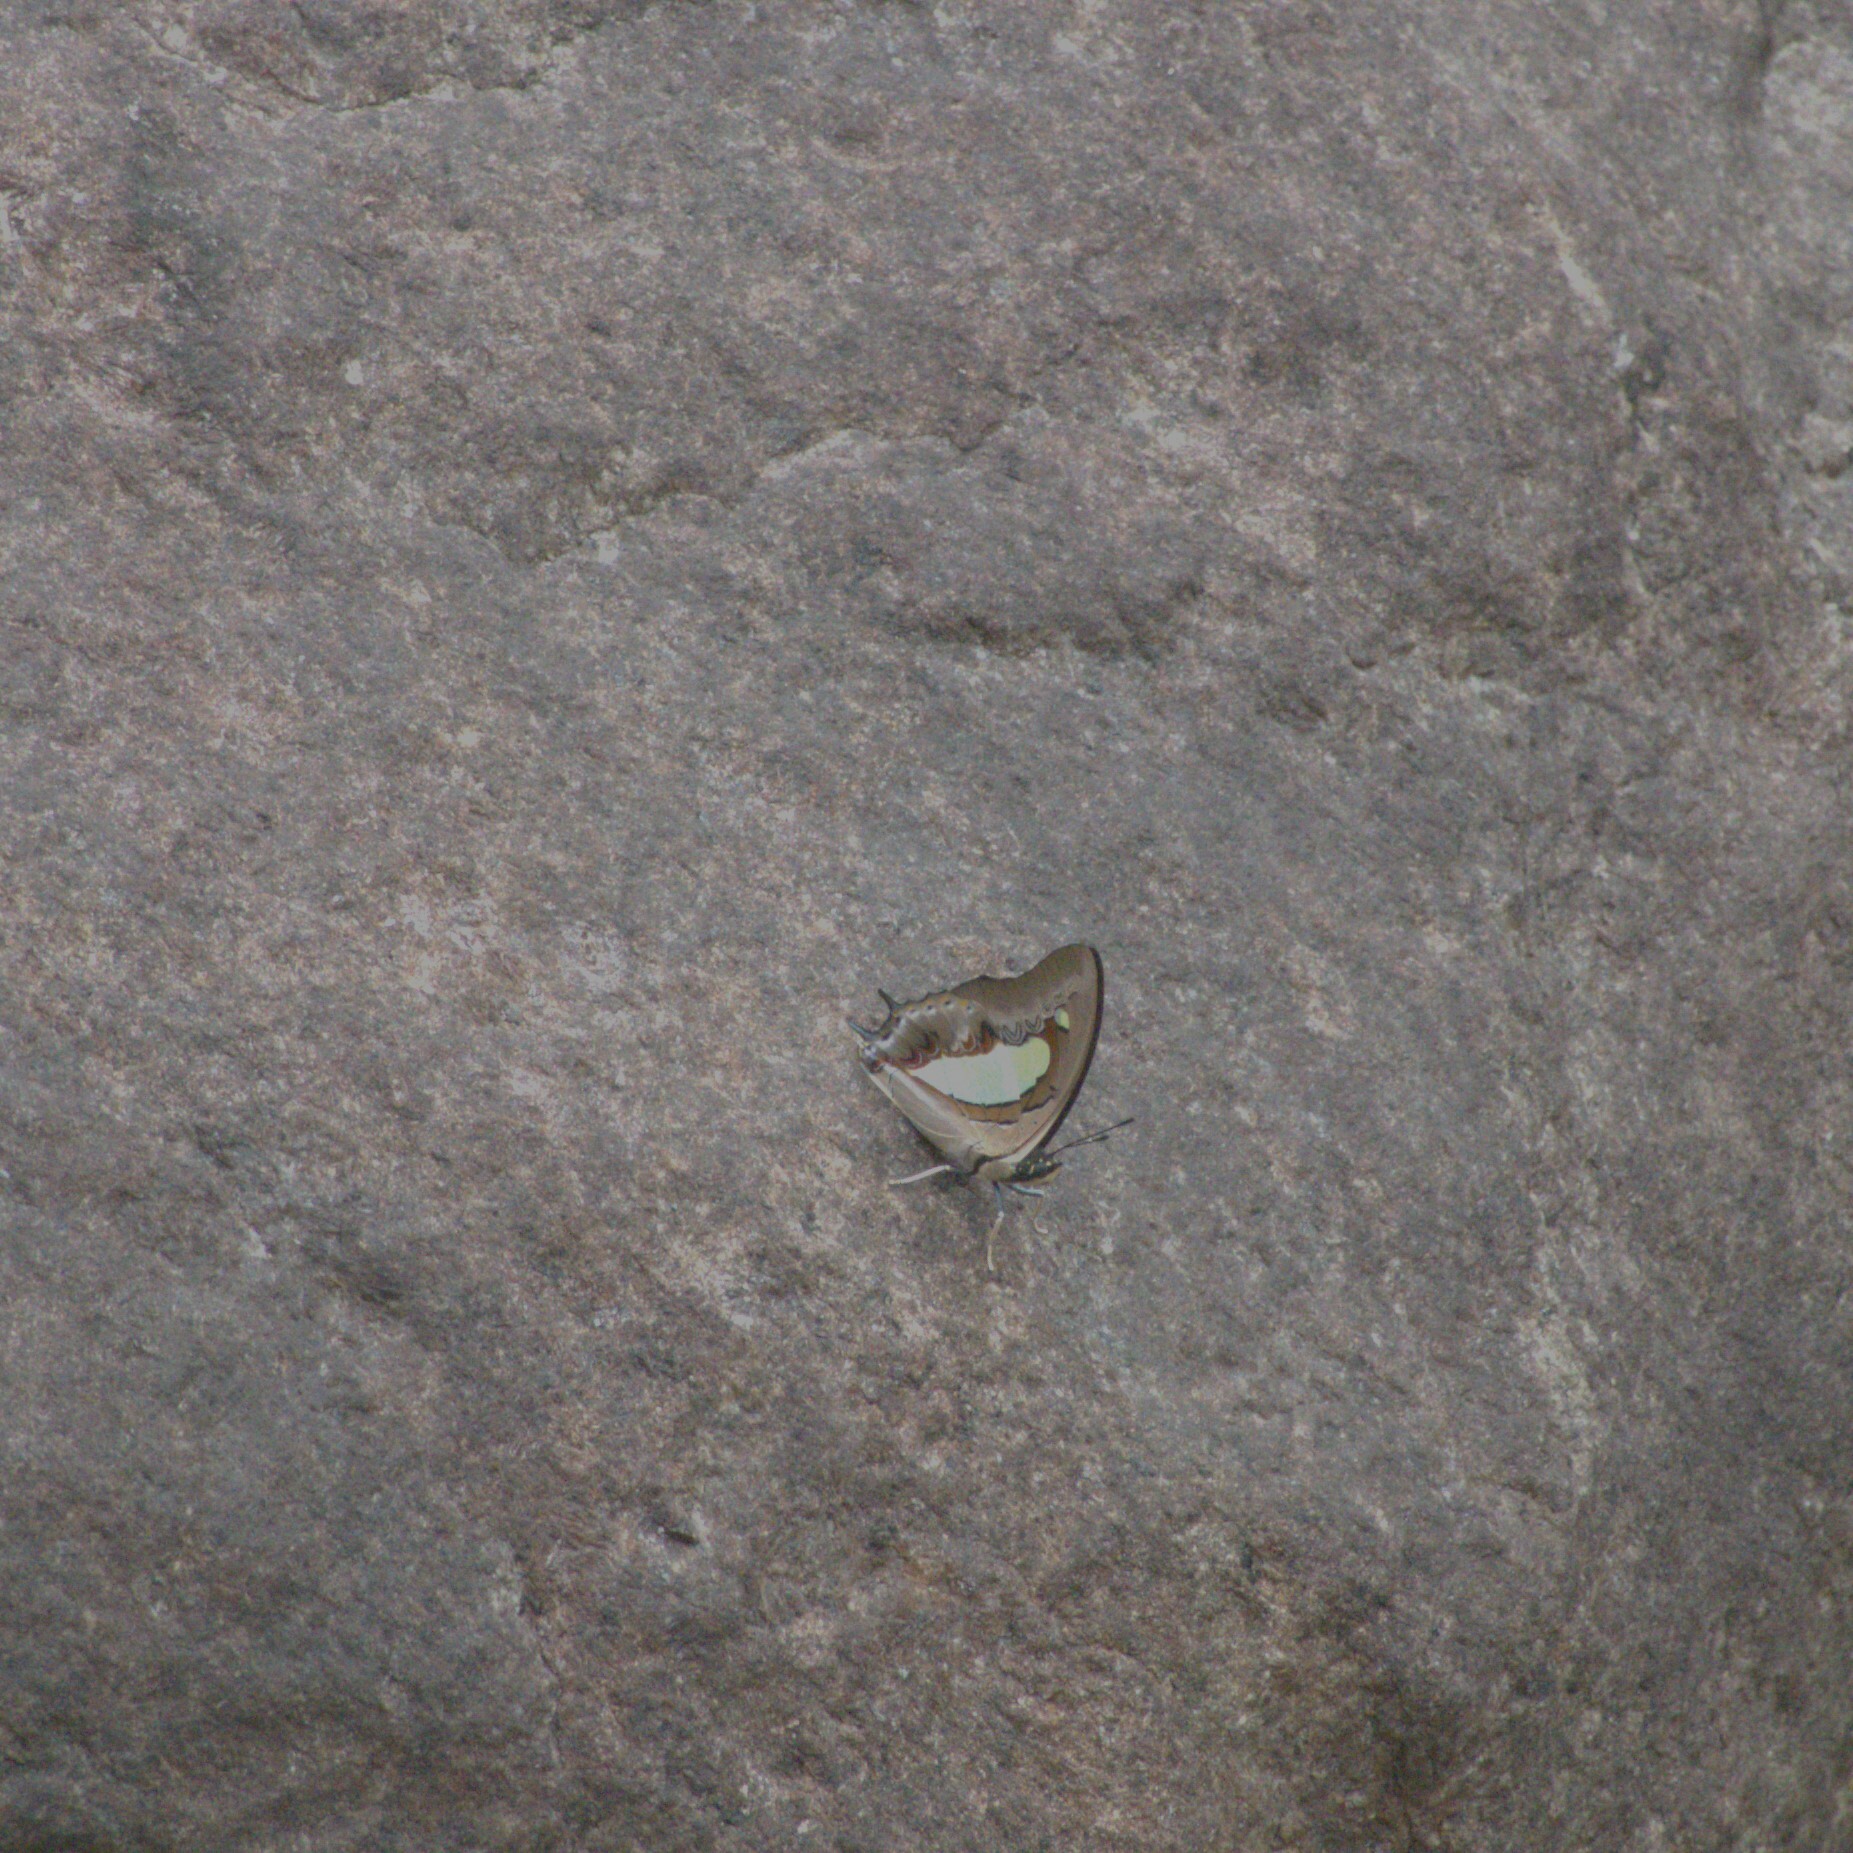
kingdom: Animalia
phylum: Arthropoda
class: Insecta
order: Lepidoptera
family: Nymphalidae
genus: Polyura
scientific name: Polyura
